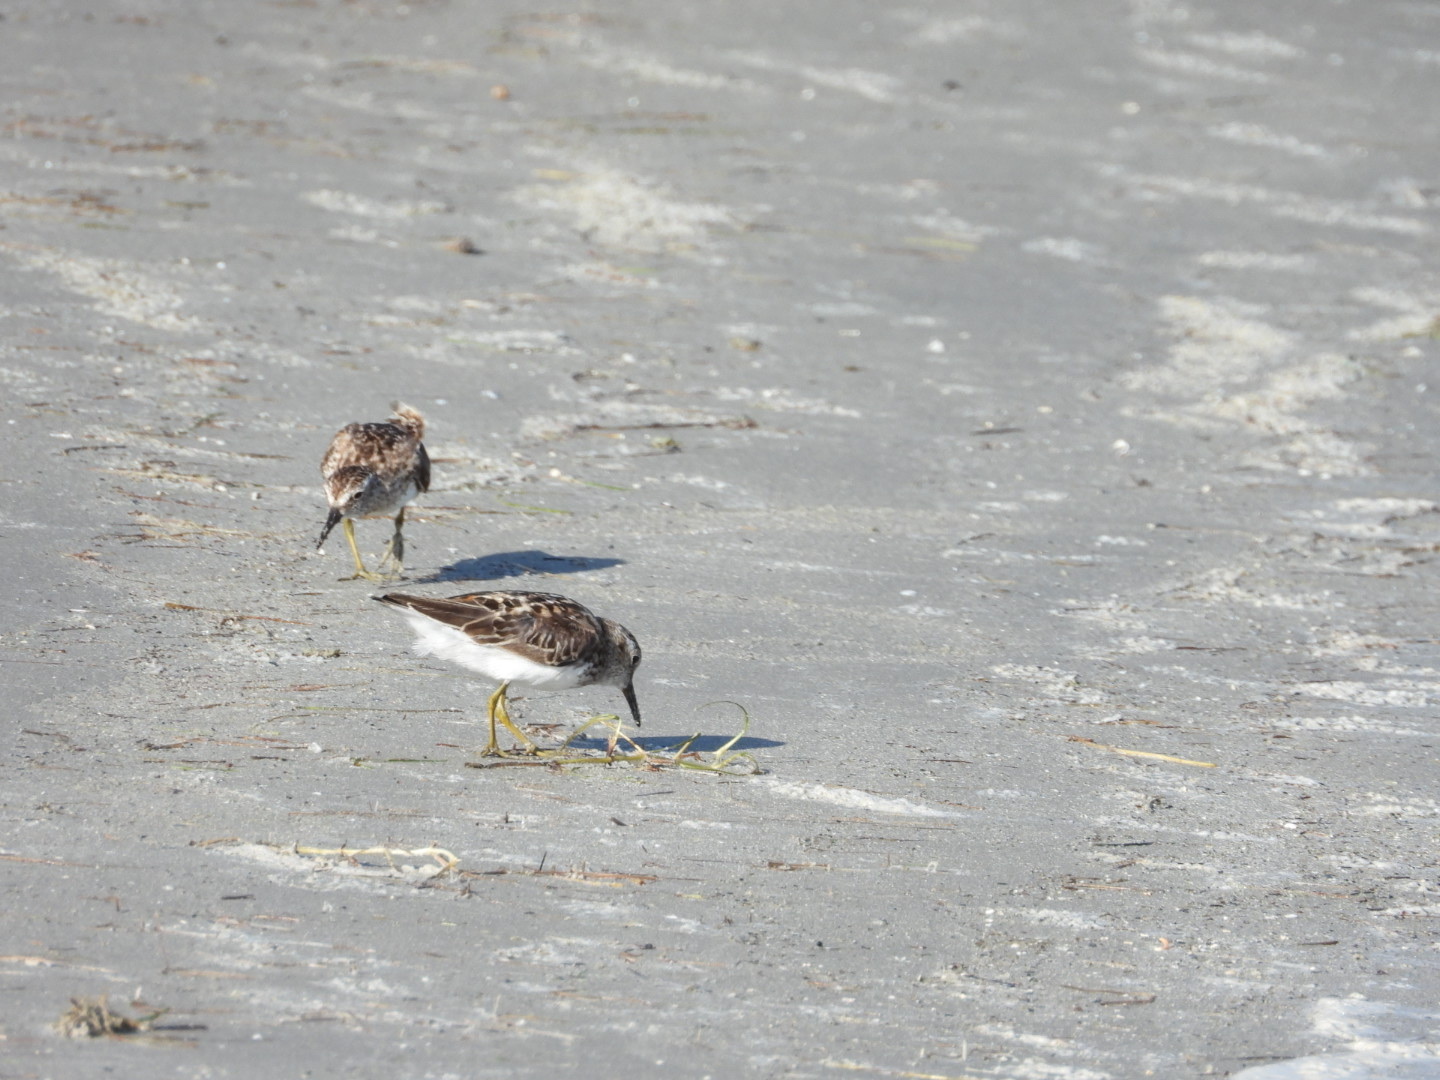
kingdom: Animalia
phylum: Chordata
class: Aves
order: Charadriiformes
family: Scolopacidae
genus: Calidris
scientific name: Calidris minutilla
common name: Least sandpiper
